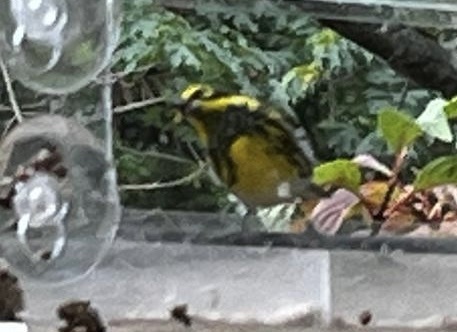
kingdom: Animalia
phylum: Chordata
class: Aves
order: Passeriformes
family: Parulidae
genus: Setophaga
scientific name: Setophaga townsendi
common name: Townsend's warbler
